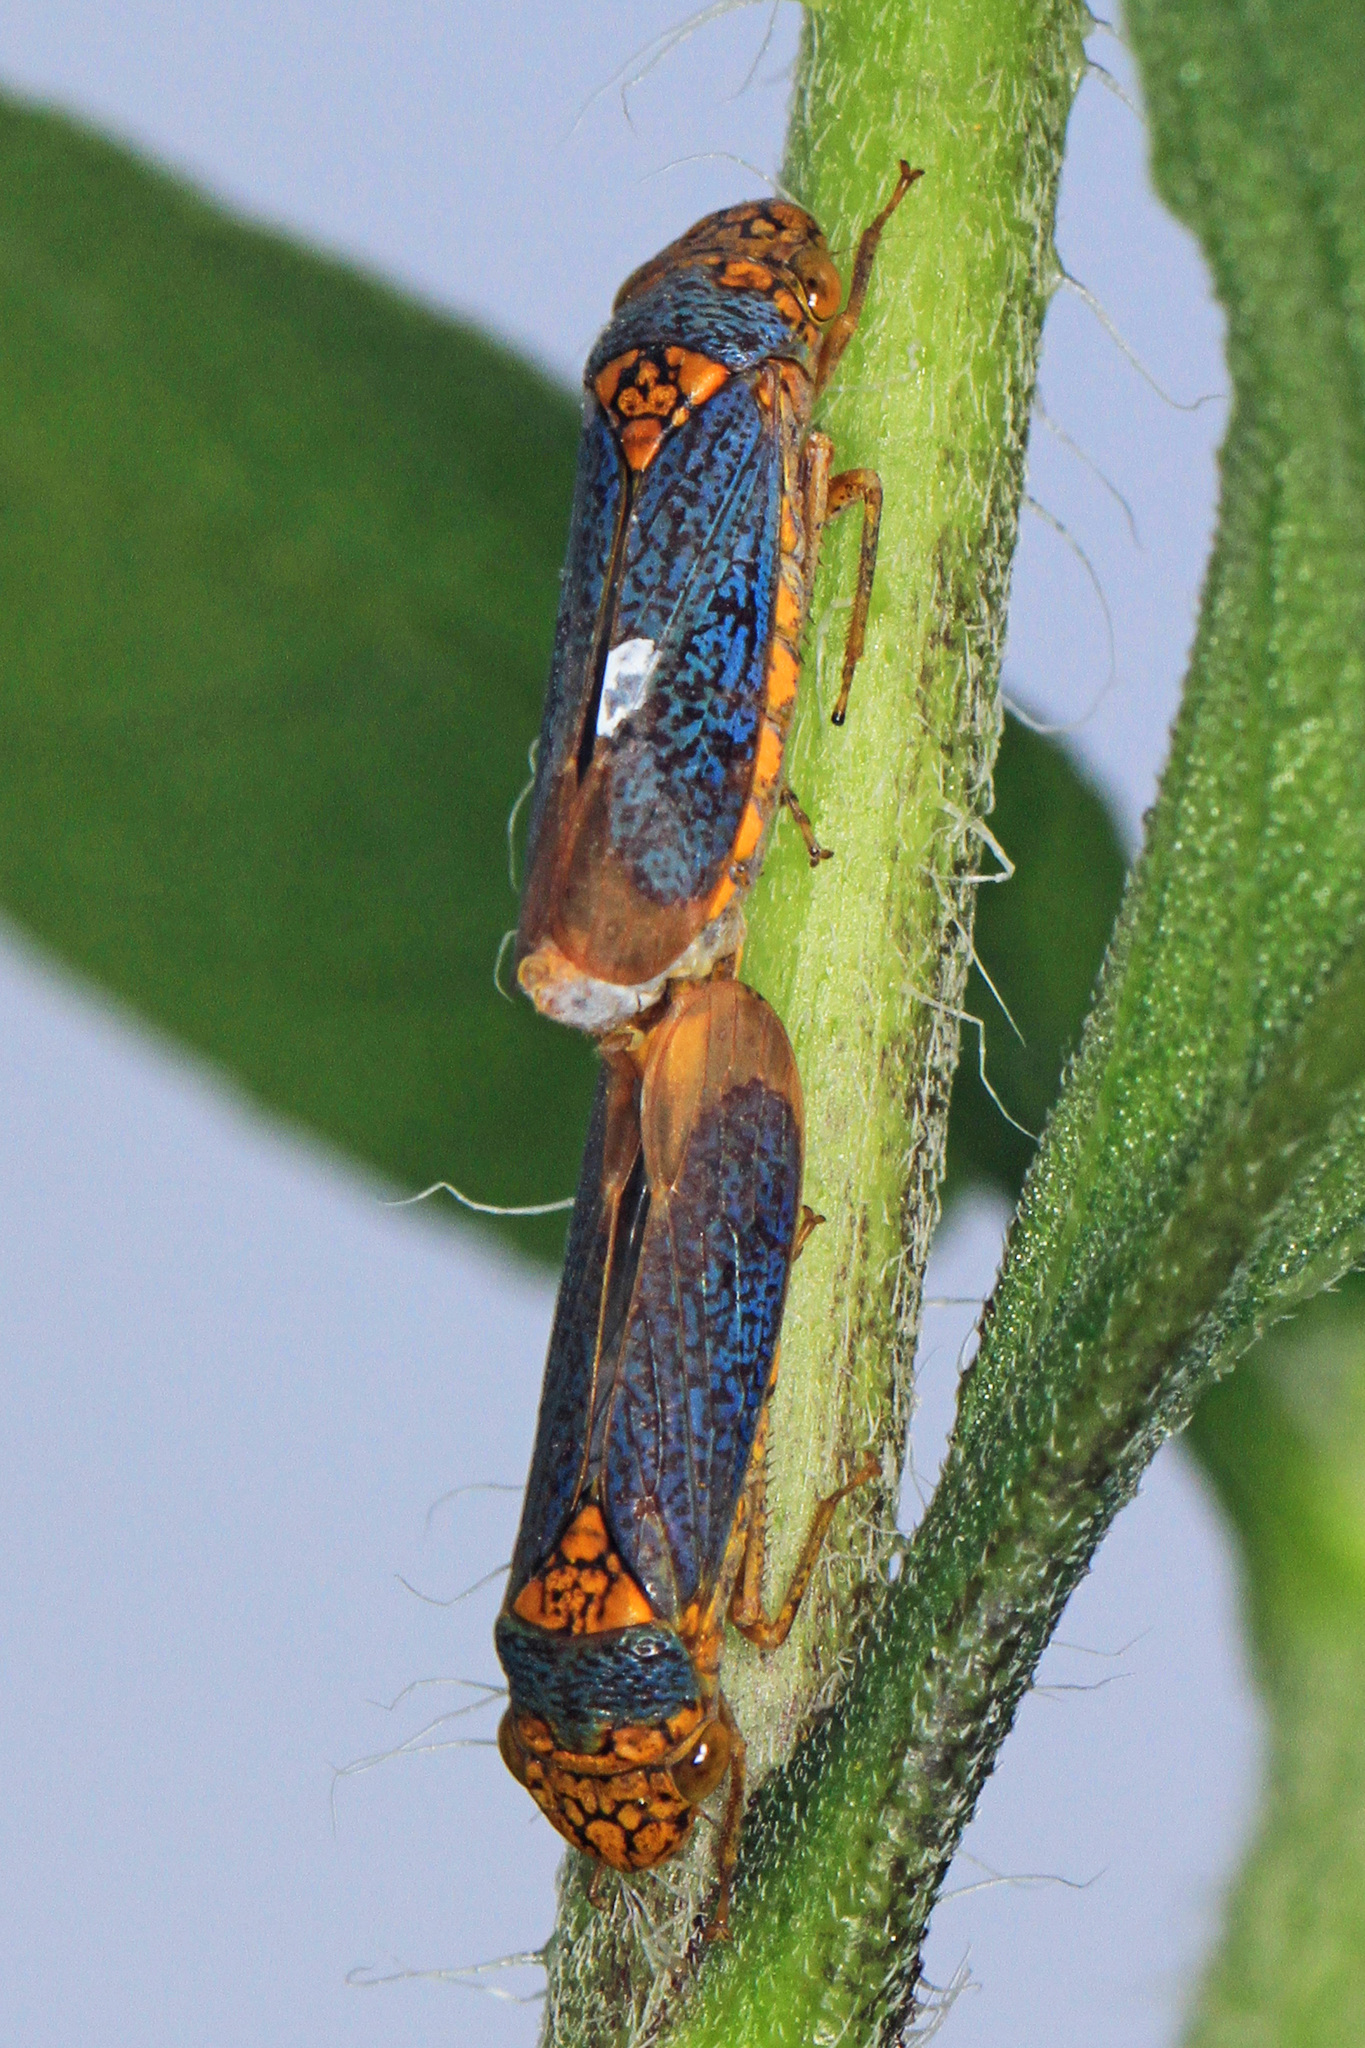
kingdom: Animalia
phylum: Arthropoda
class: Insecta
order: Hemiptera
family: Cicadellidae
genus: Oncometopia
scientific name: Oncometopia orbona
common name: Broad-headed sharpshooter
